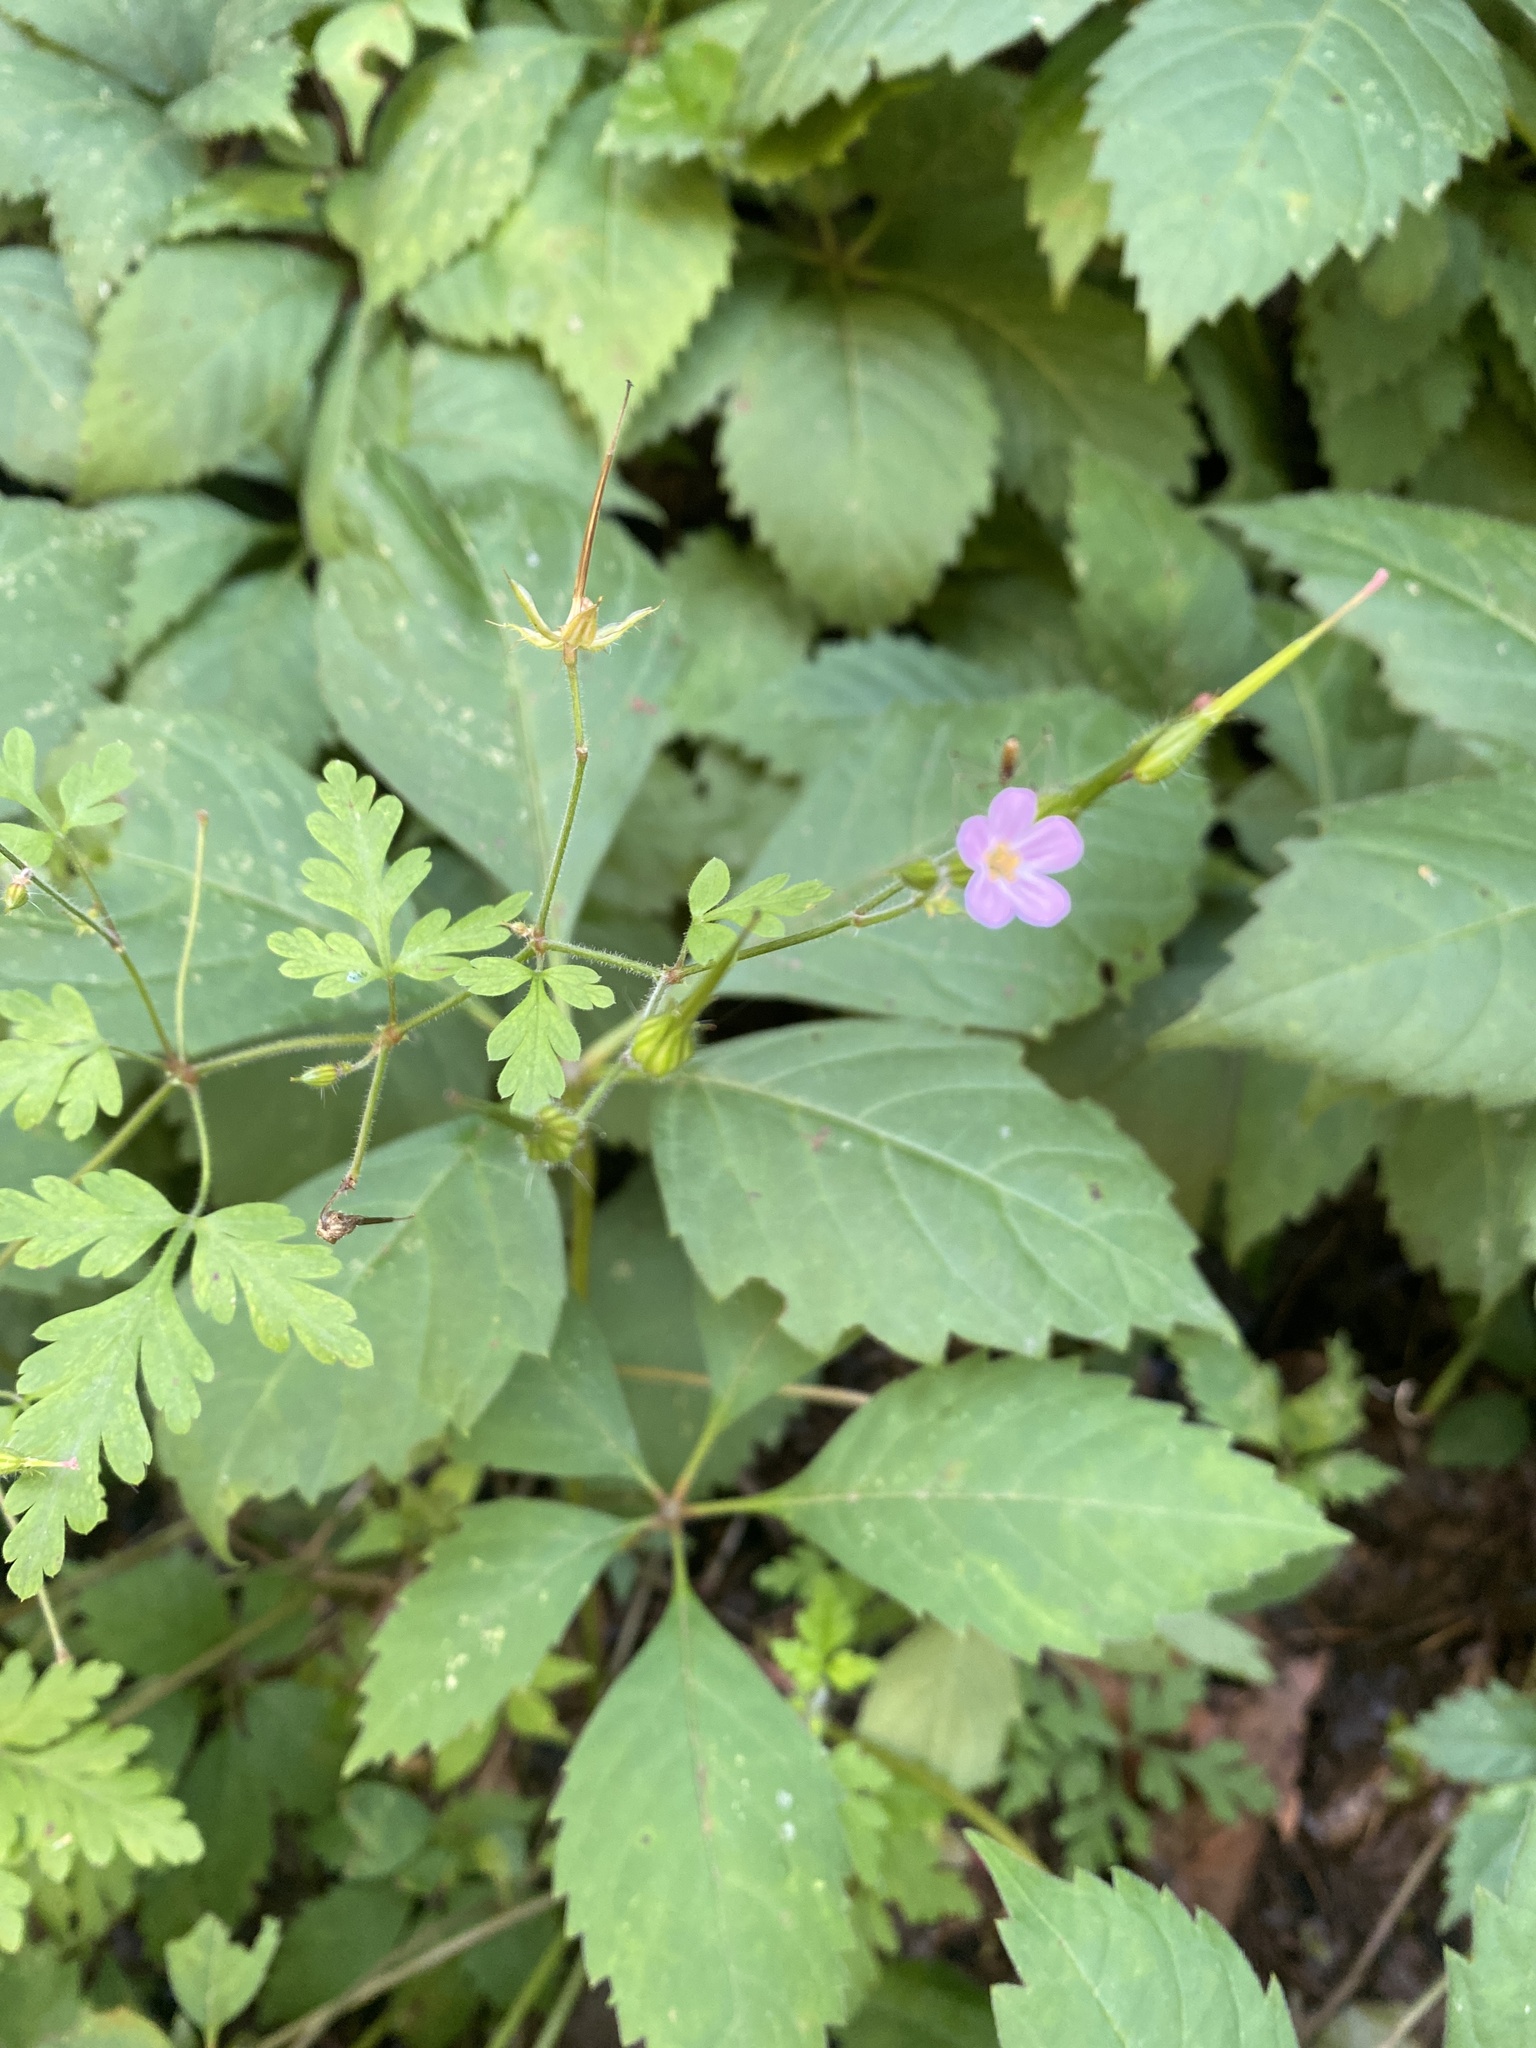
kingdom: Plantae
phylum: Tracheophyta
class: Magnoliopsida
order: Geraniales
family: Geraniaceae
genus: Geranium
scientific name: Geranium robertianum
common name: Herb-robert
